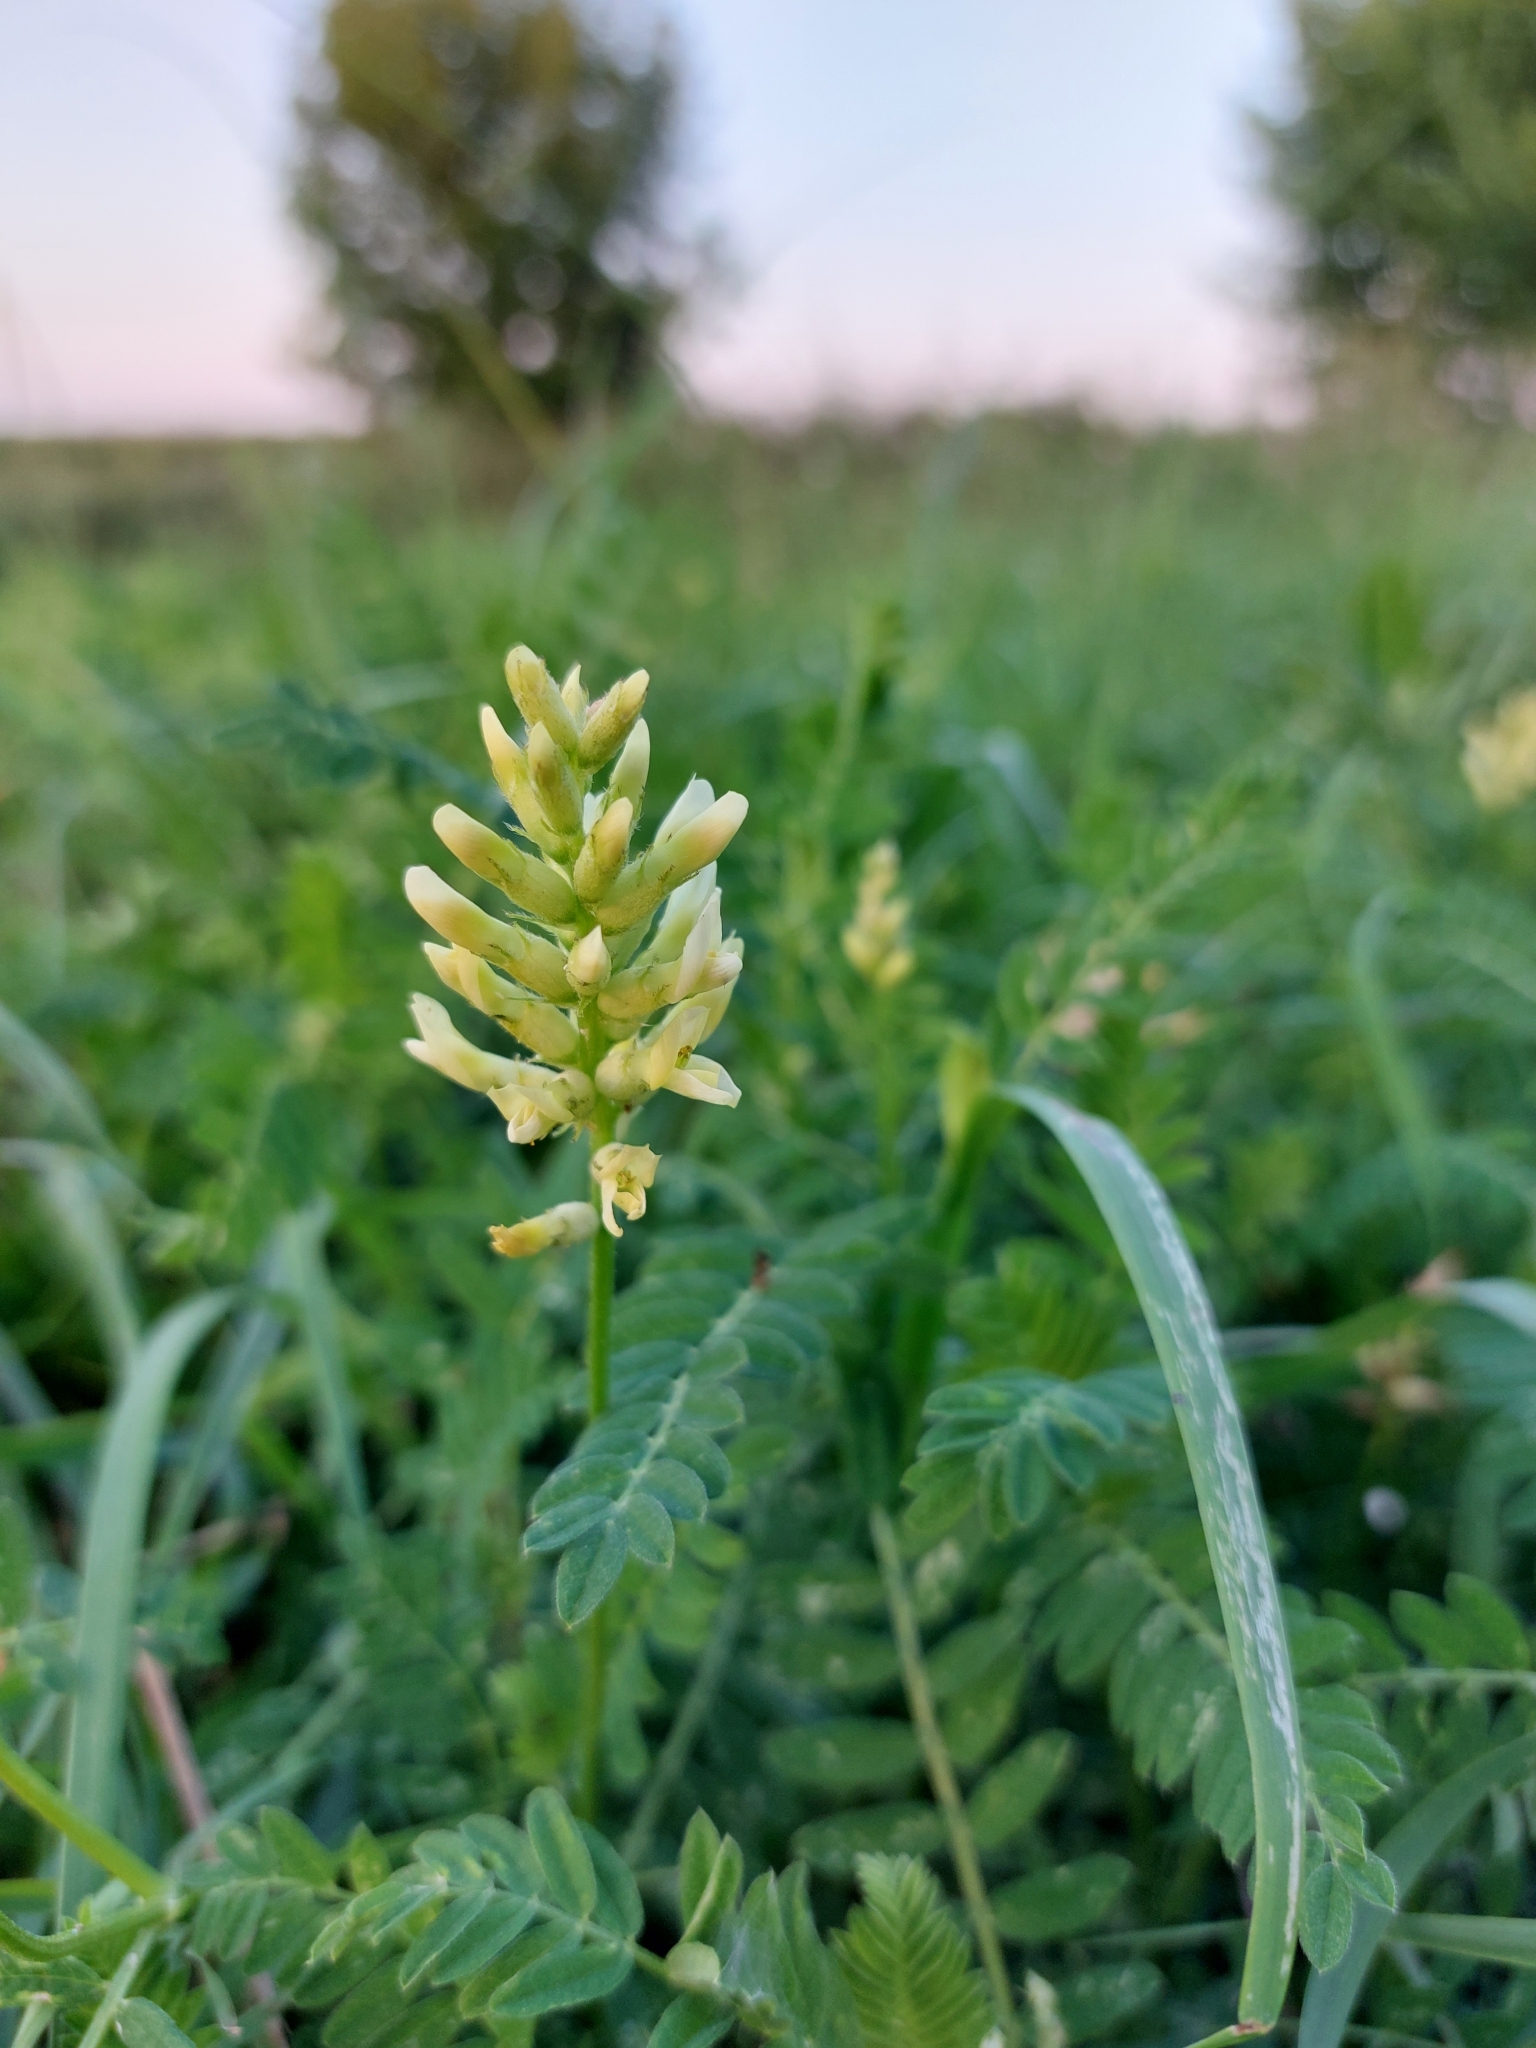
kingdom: Plantae
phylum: Tracheophyta
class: Magnoliopsida
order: Fabales
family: Fabaceae
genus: Astragalus
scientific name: Astragalus cicer
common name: Chick-pea milk-vetch
